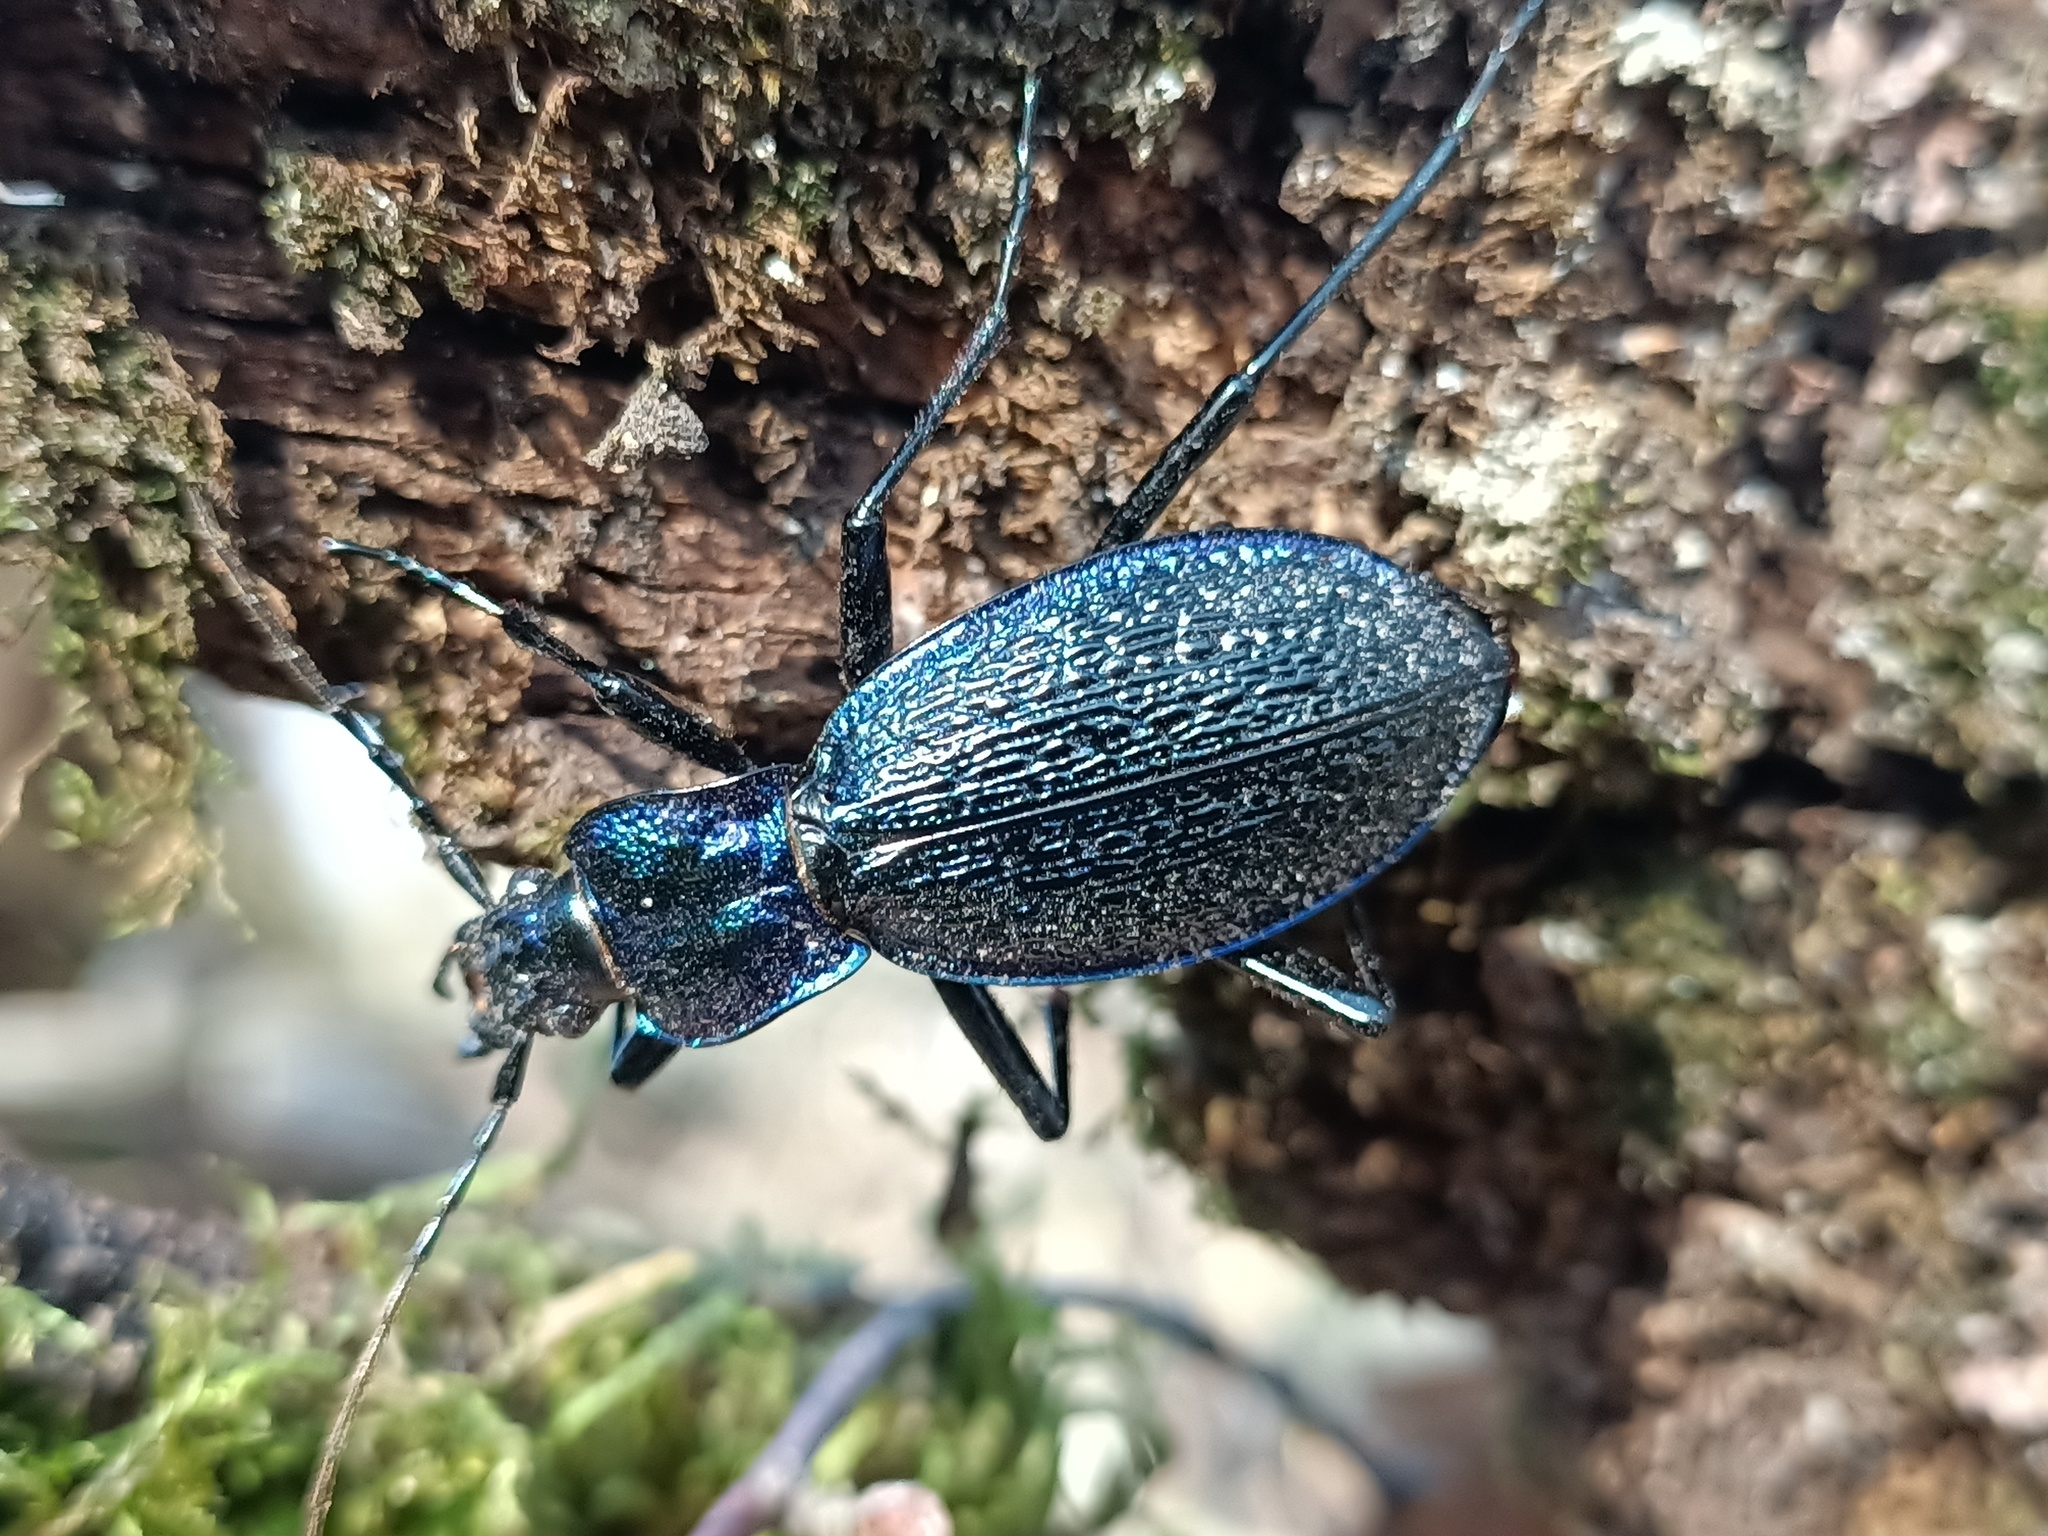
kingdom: Animalia
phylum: Arthropoda
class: Insecta
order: Coleoptera
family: Carabidae
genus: Carabus
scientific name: Carabus intricatus
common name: Blue ground beetle
